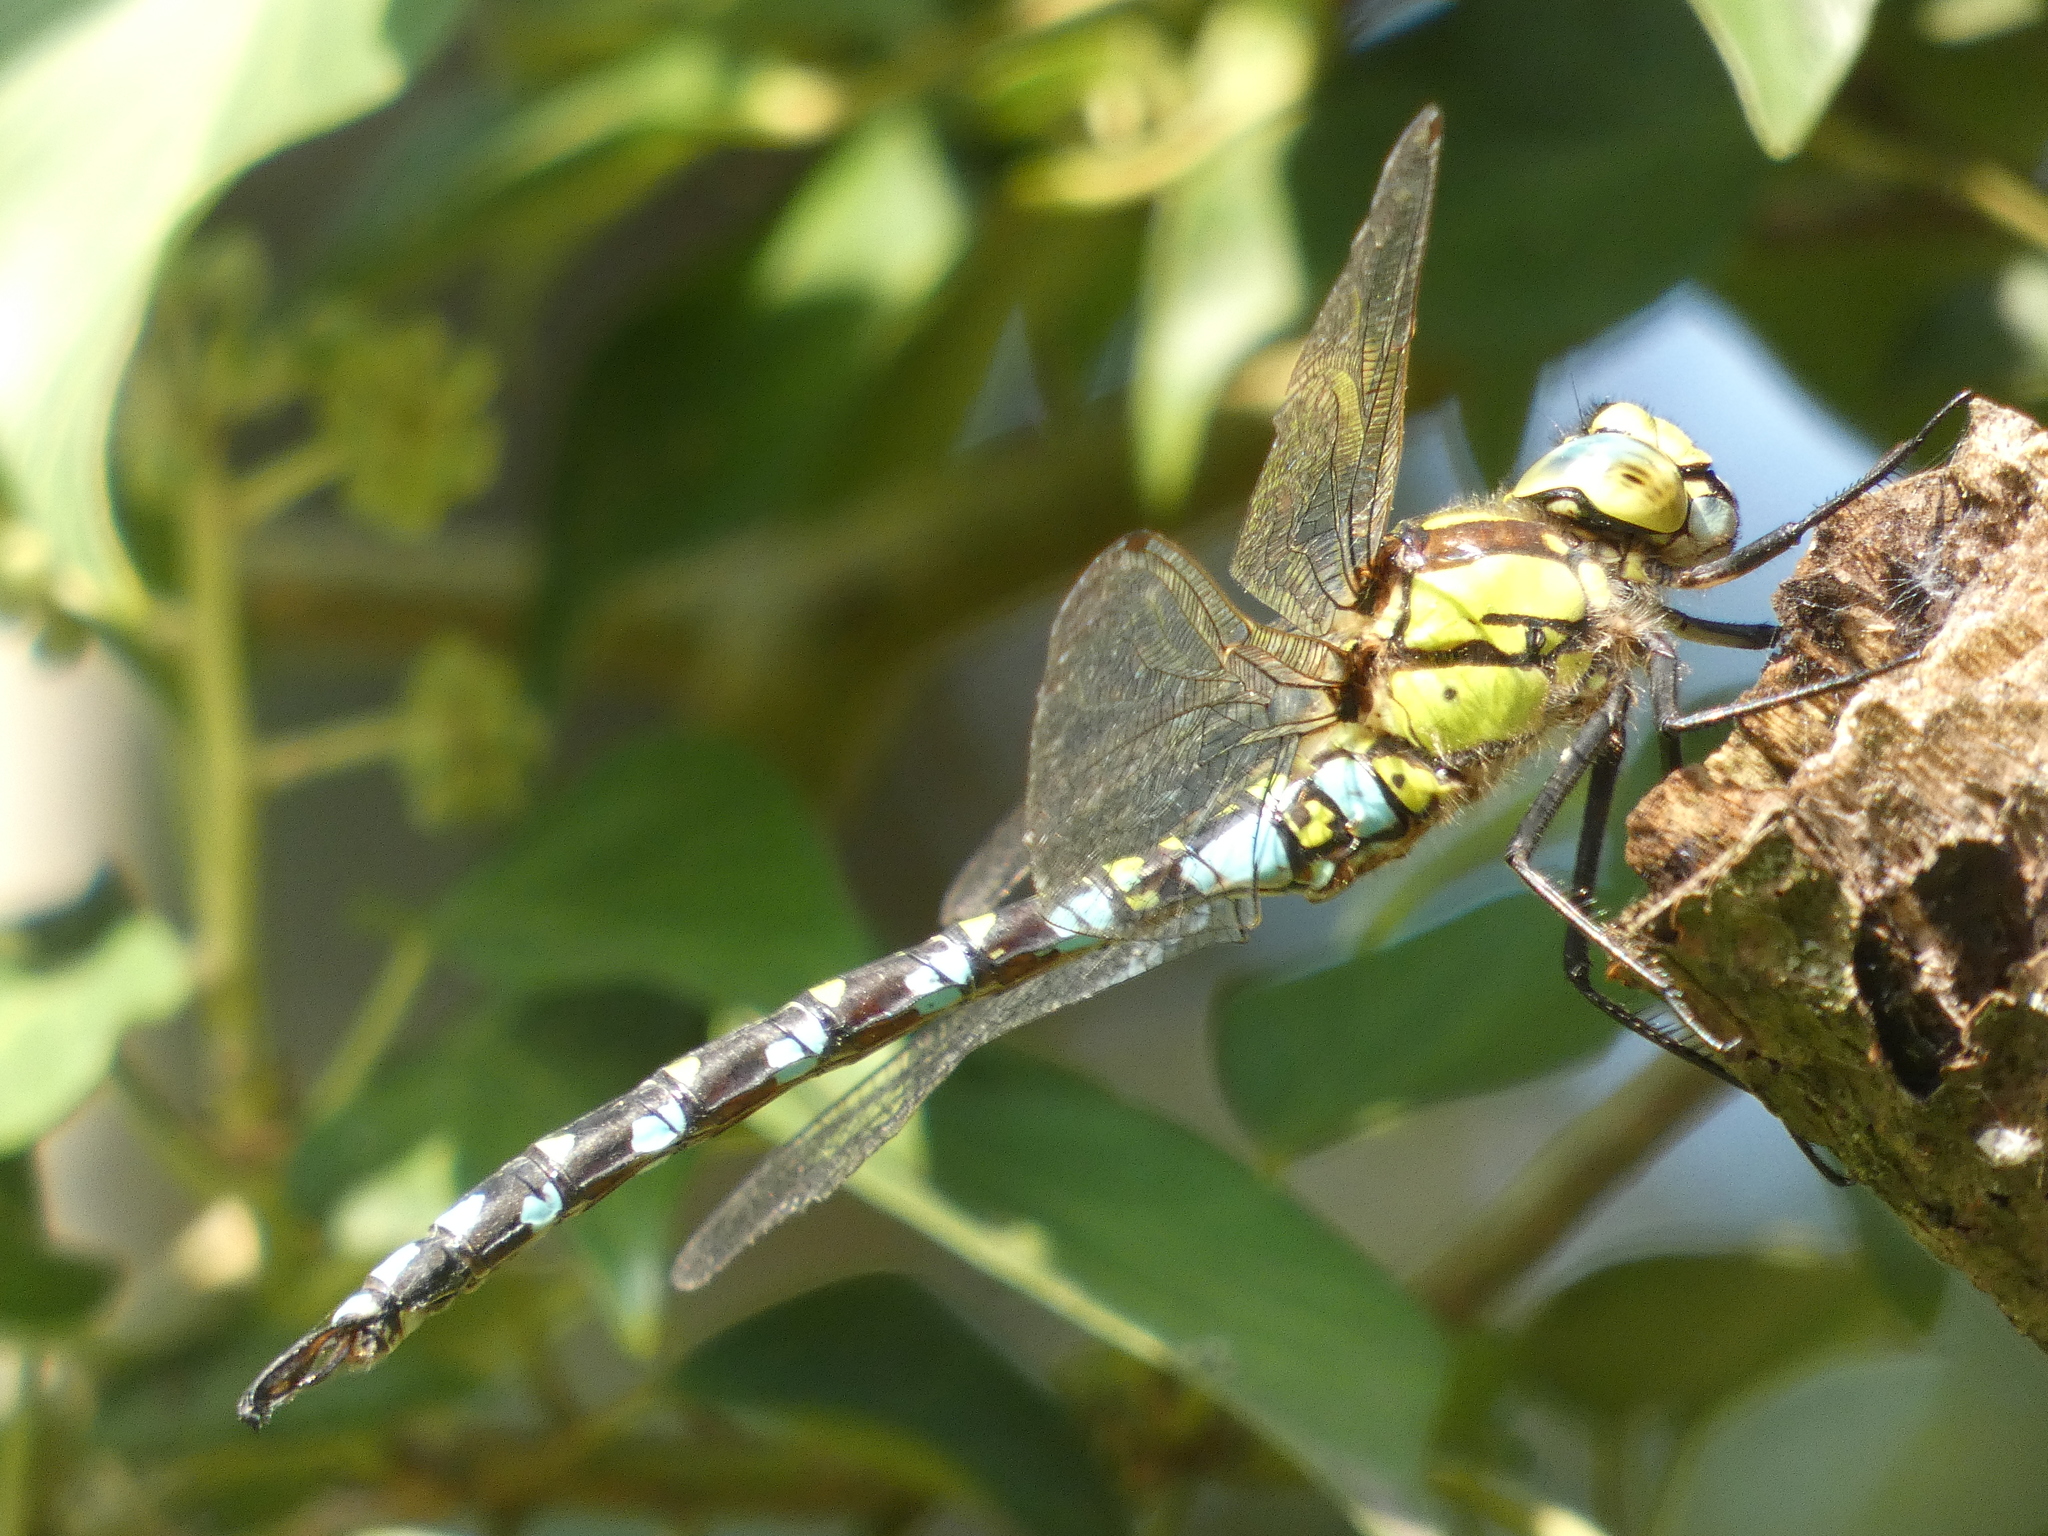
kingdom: Animalia
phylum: Arthropoda
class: Insecta
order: Odonata
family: Aeshnidae
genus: Aeshna
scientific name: Aeshna cyanea
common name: Southern hawker
